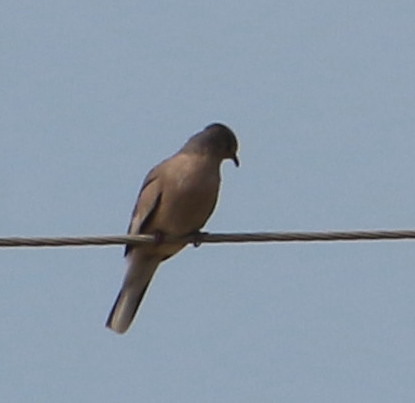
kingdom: Animalia
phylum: Chordata
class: Aves
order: Columbiformes
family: Columbidae
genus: Columbina
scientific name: Columbina picui
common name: Picui ground dove
